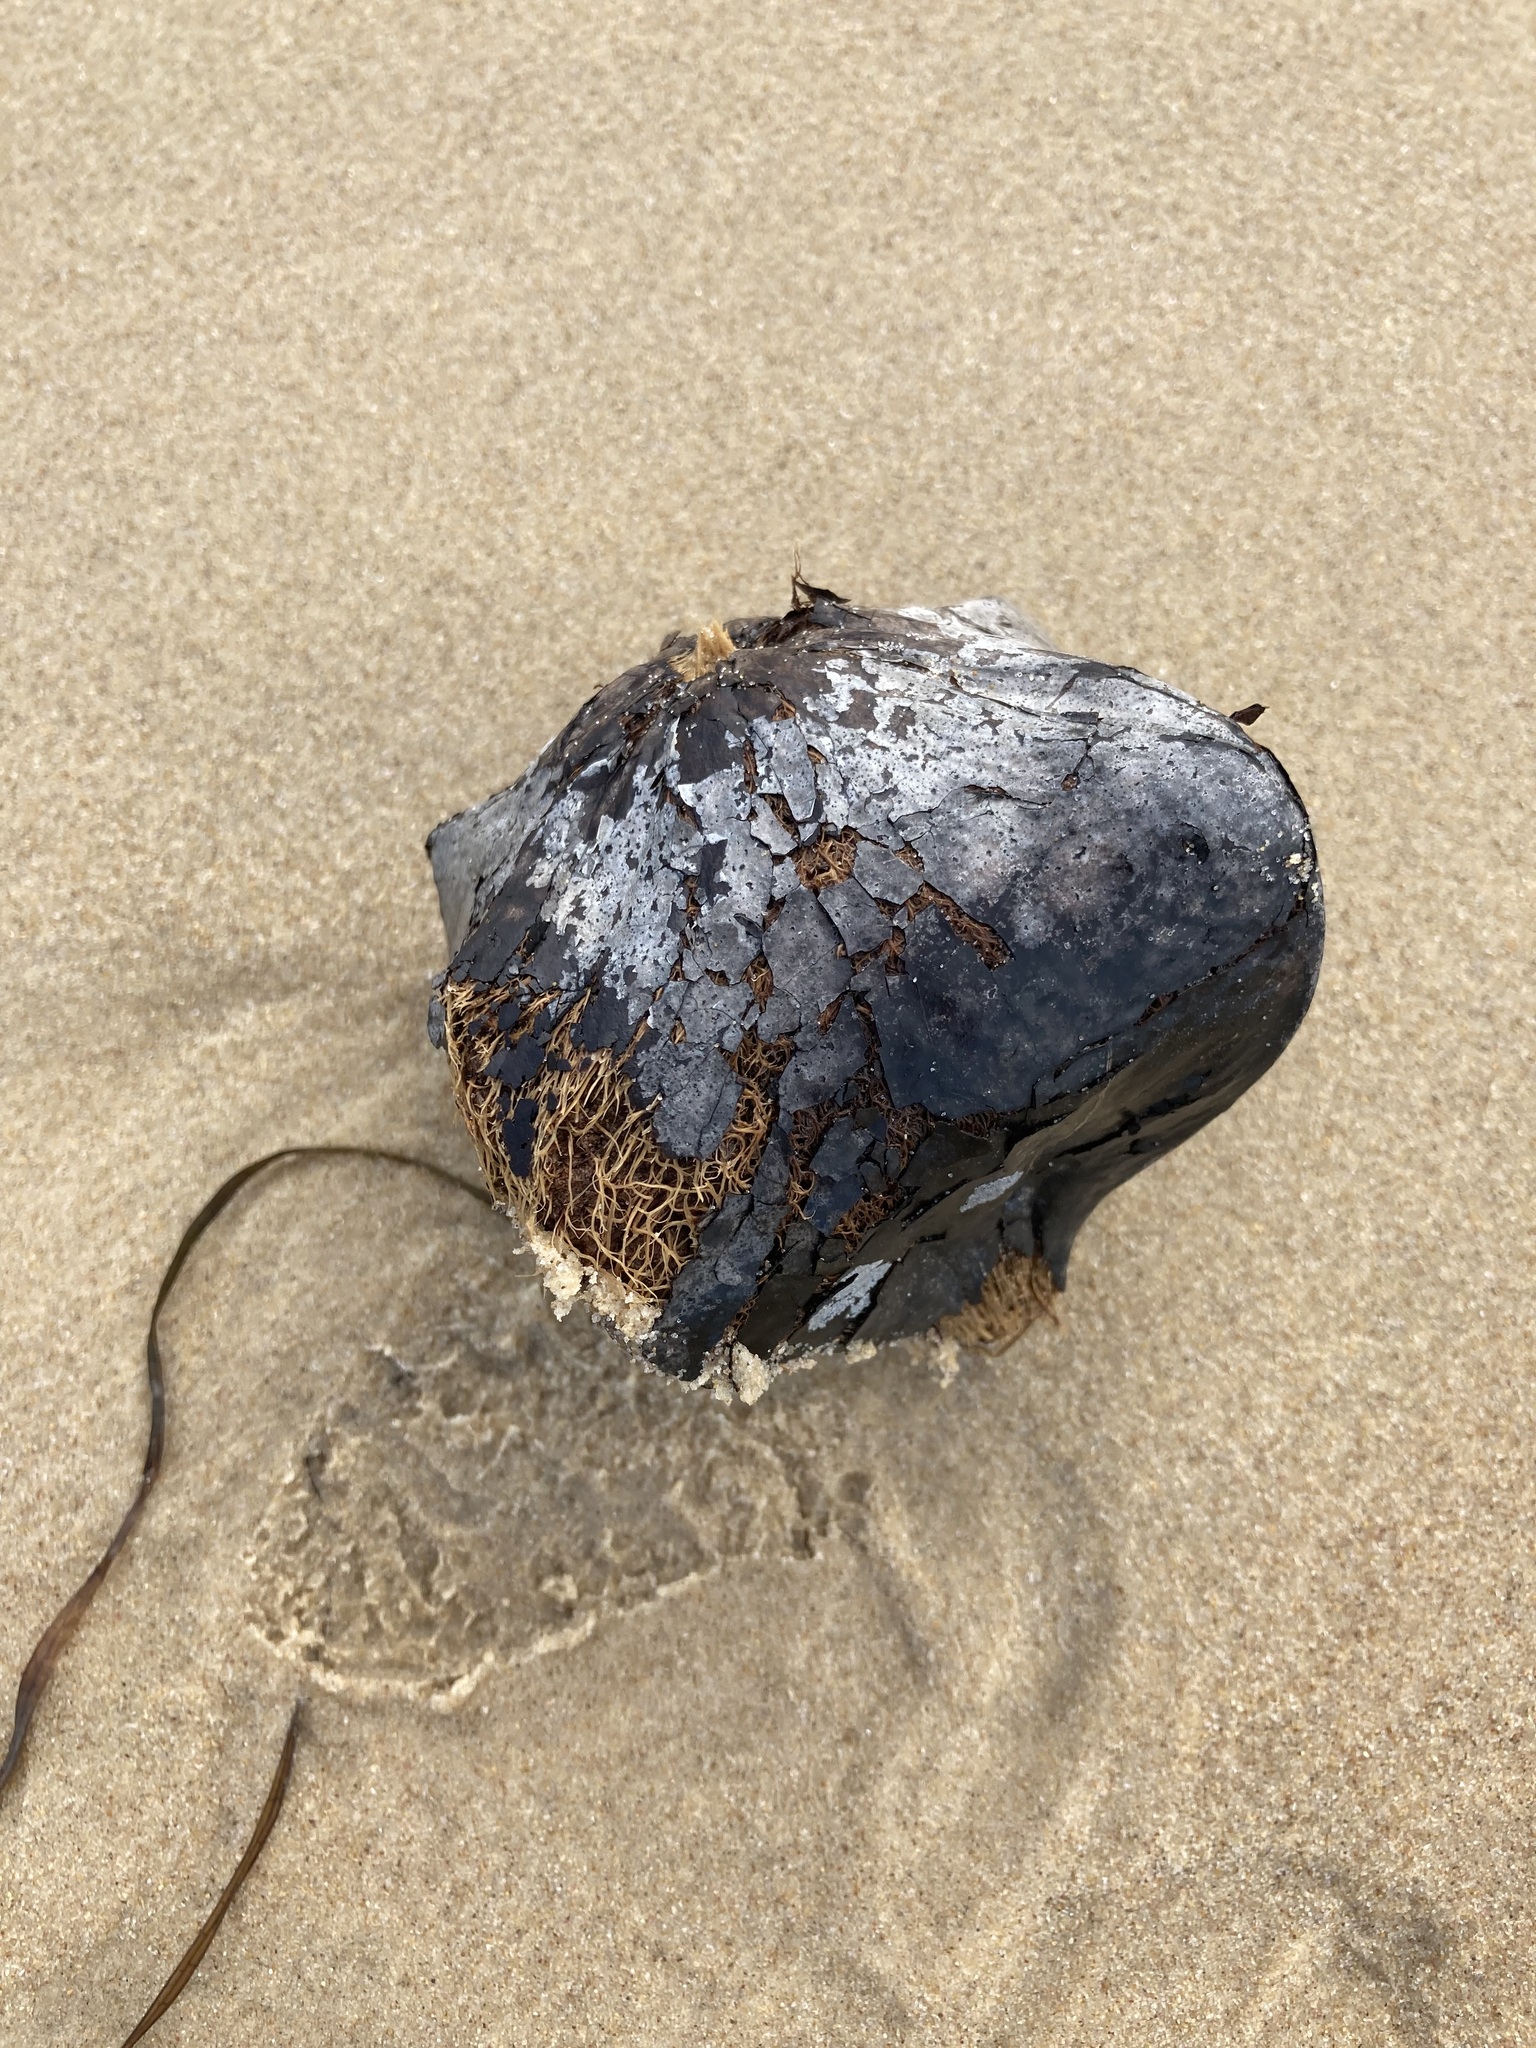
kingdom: Plantae
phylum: Tracheophyta
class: Magnoliopsida
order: Ericales
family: Lecythidaceae
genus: Barringtonia
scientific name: Barringtonia asiatica
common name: Mango-pine
